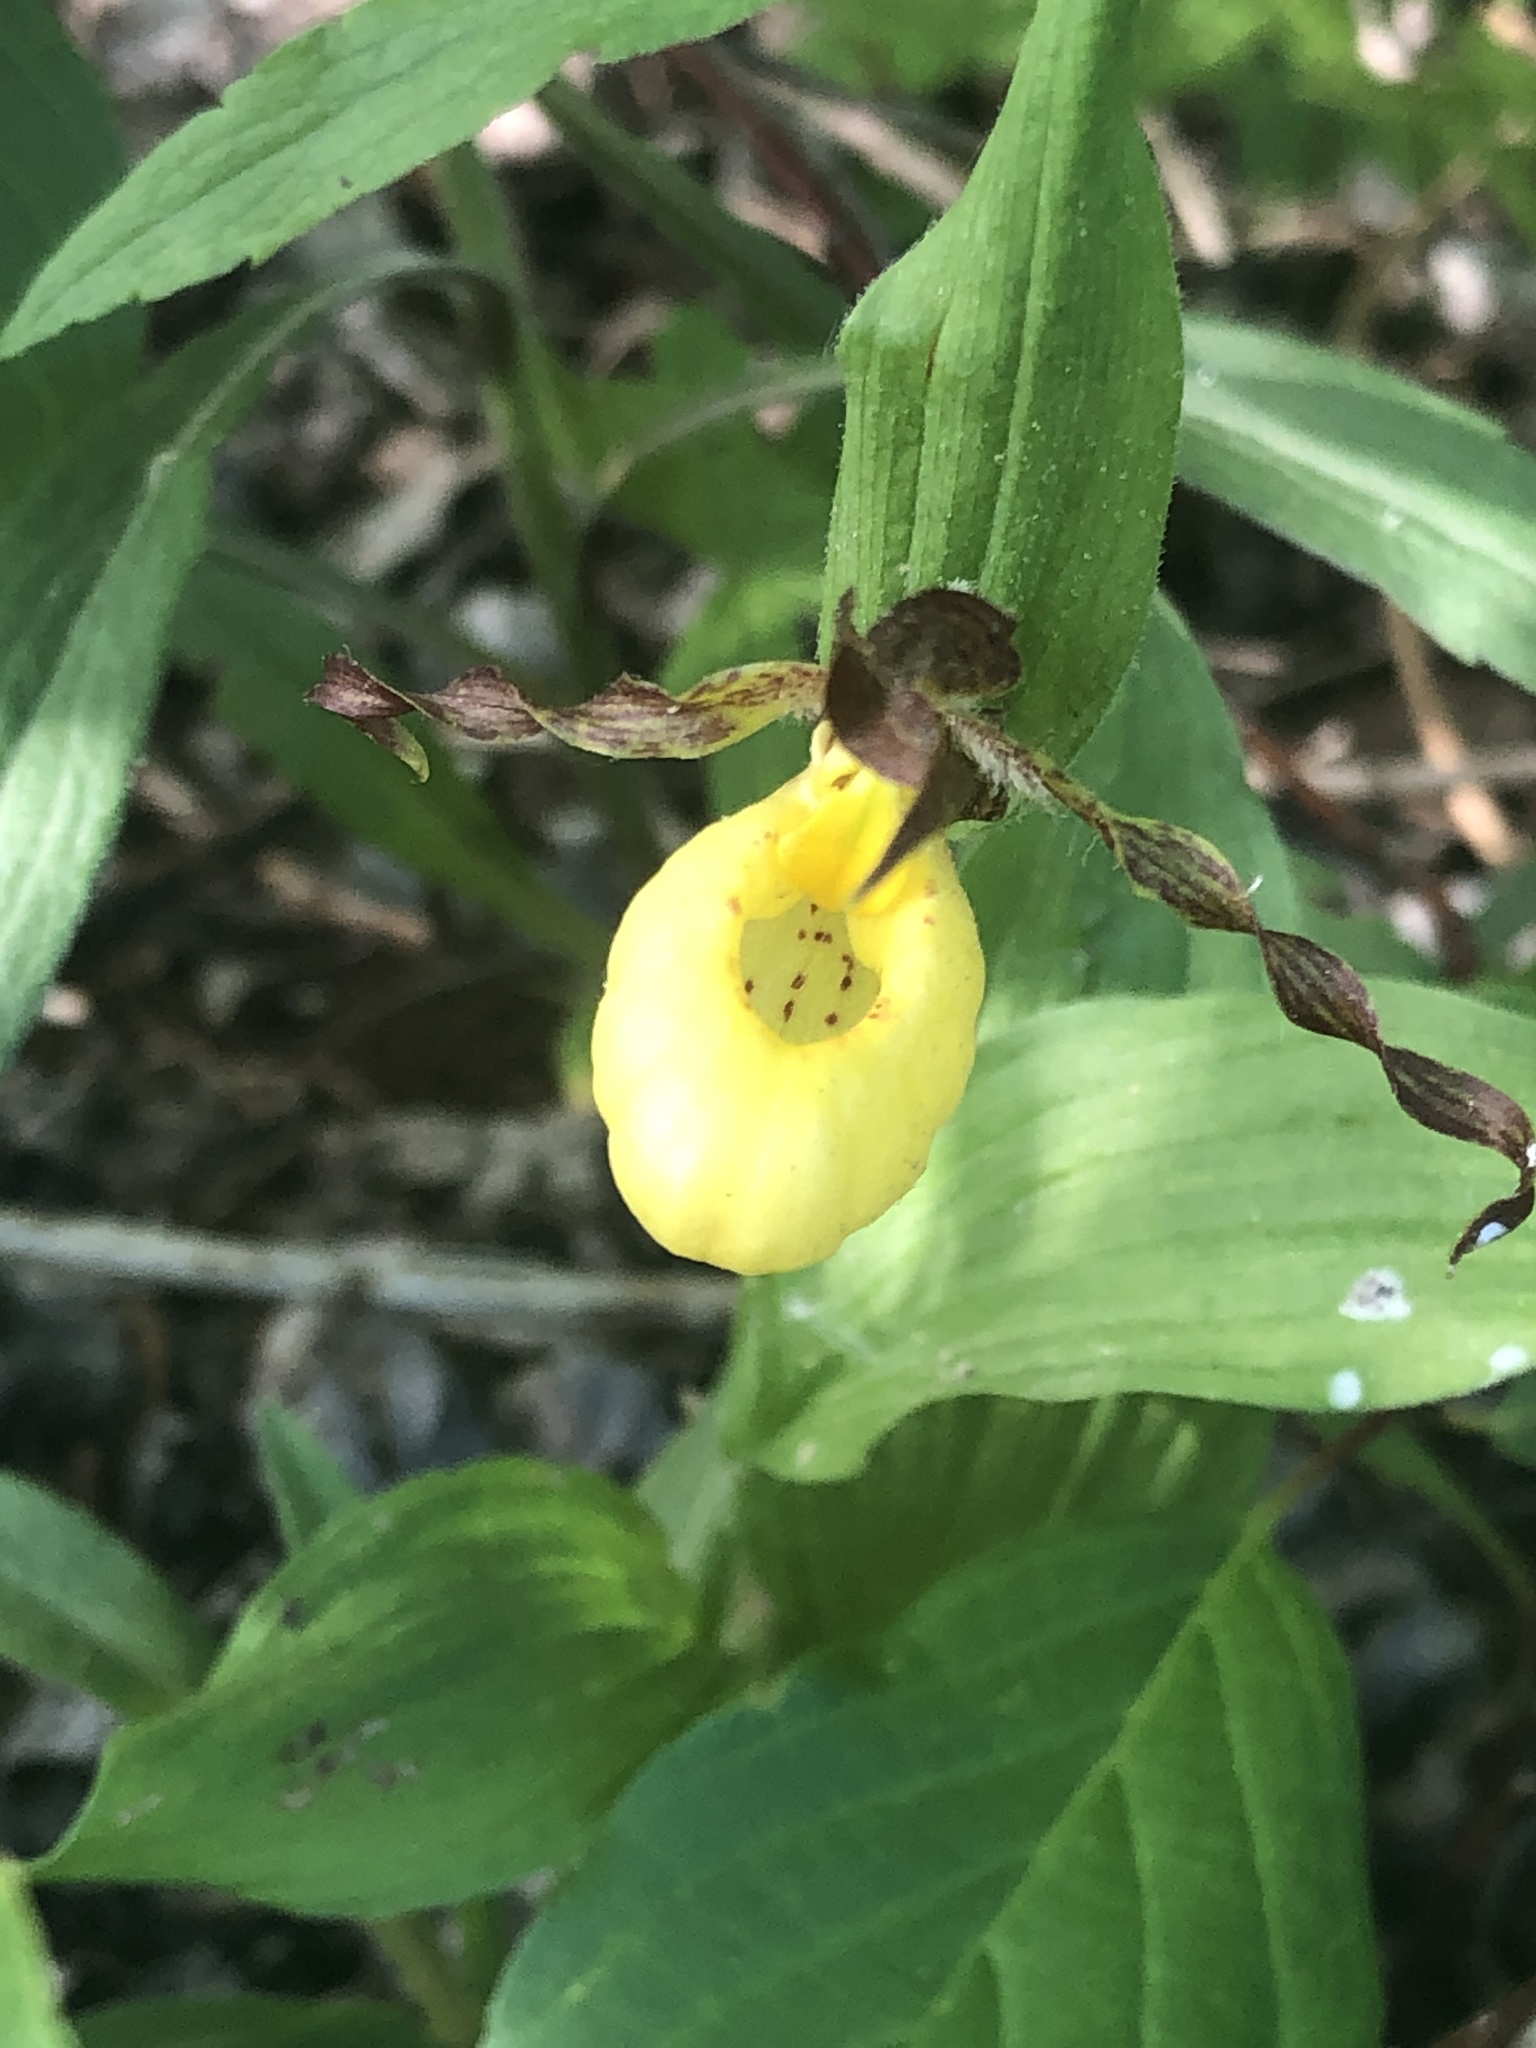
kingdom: Plantae
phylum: Tracheophyta
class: Liliopsida
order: Asparagales
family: Orchidaceae
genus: Cypripedium
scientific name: Cypripedium parviflorum
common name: American yellow lady's-slipper
